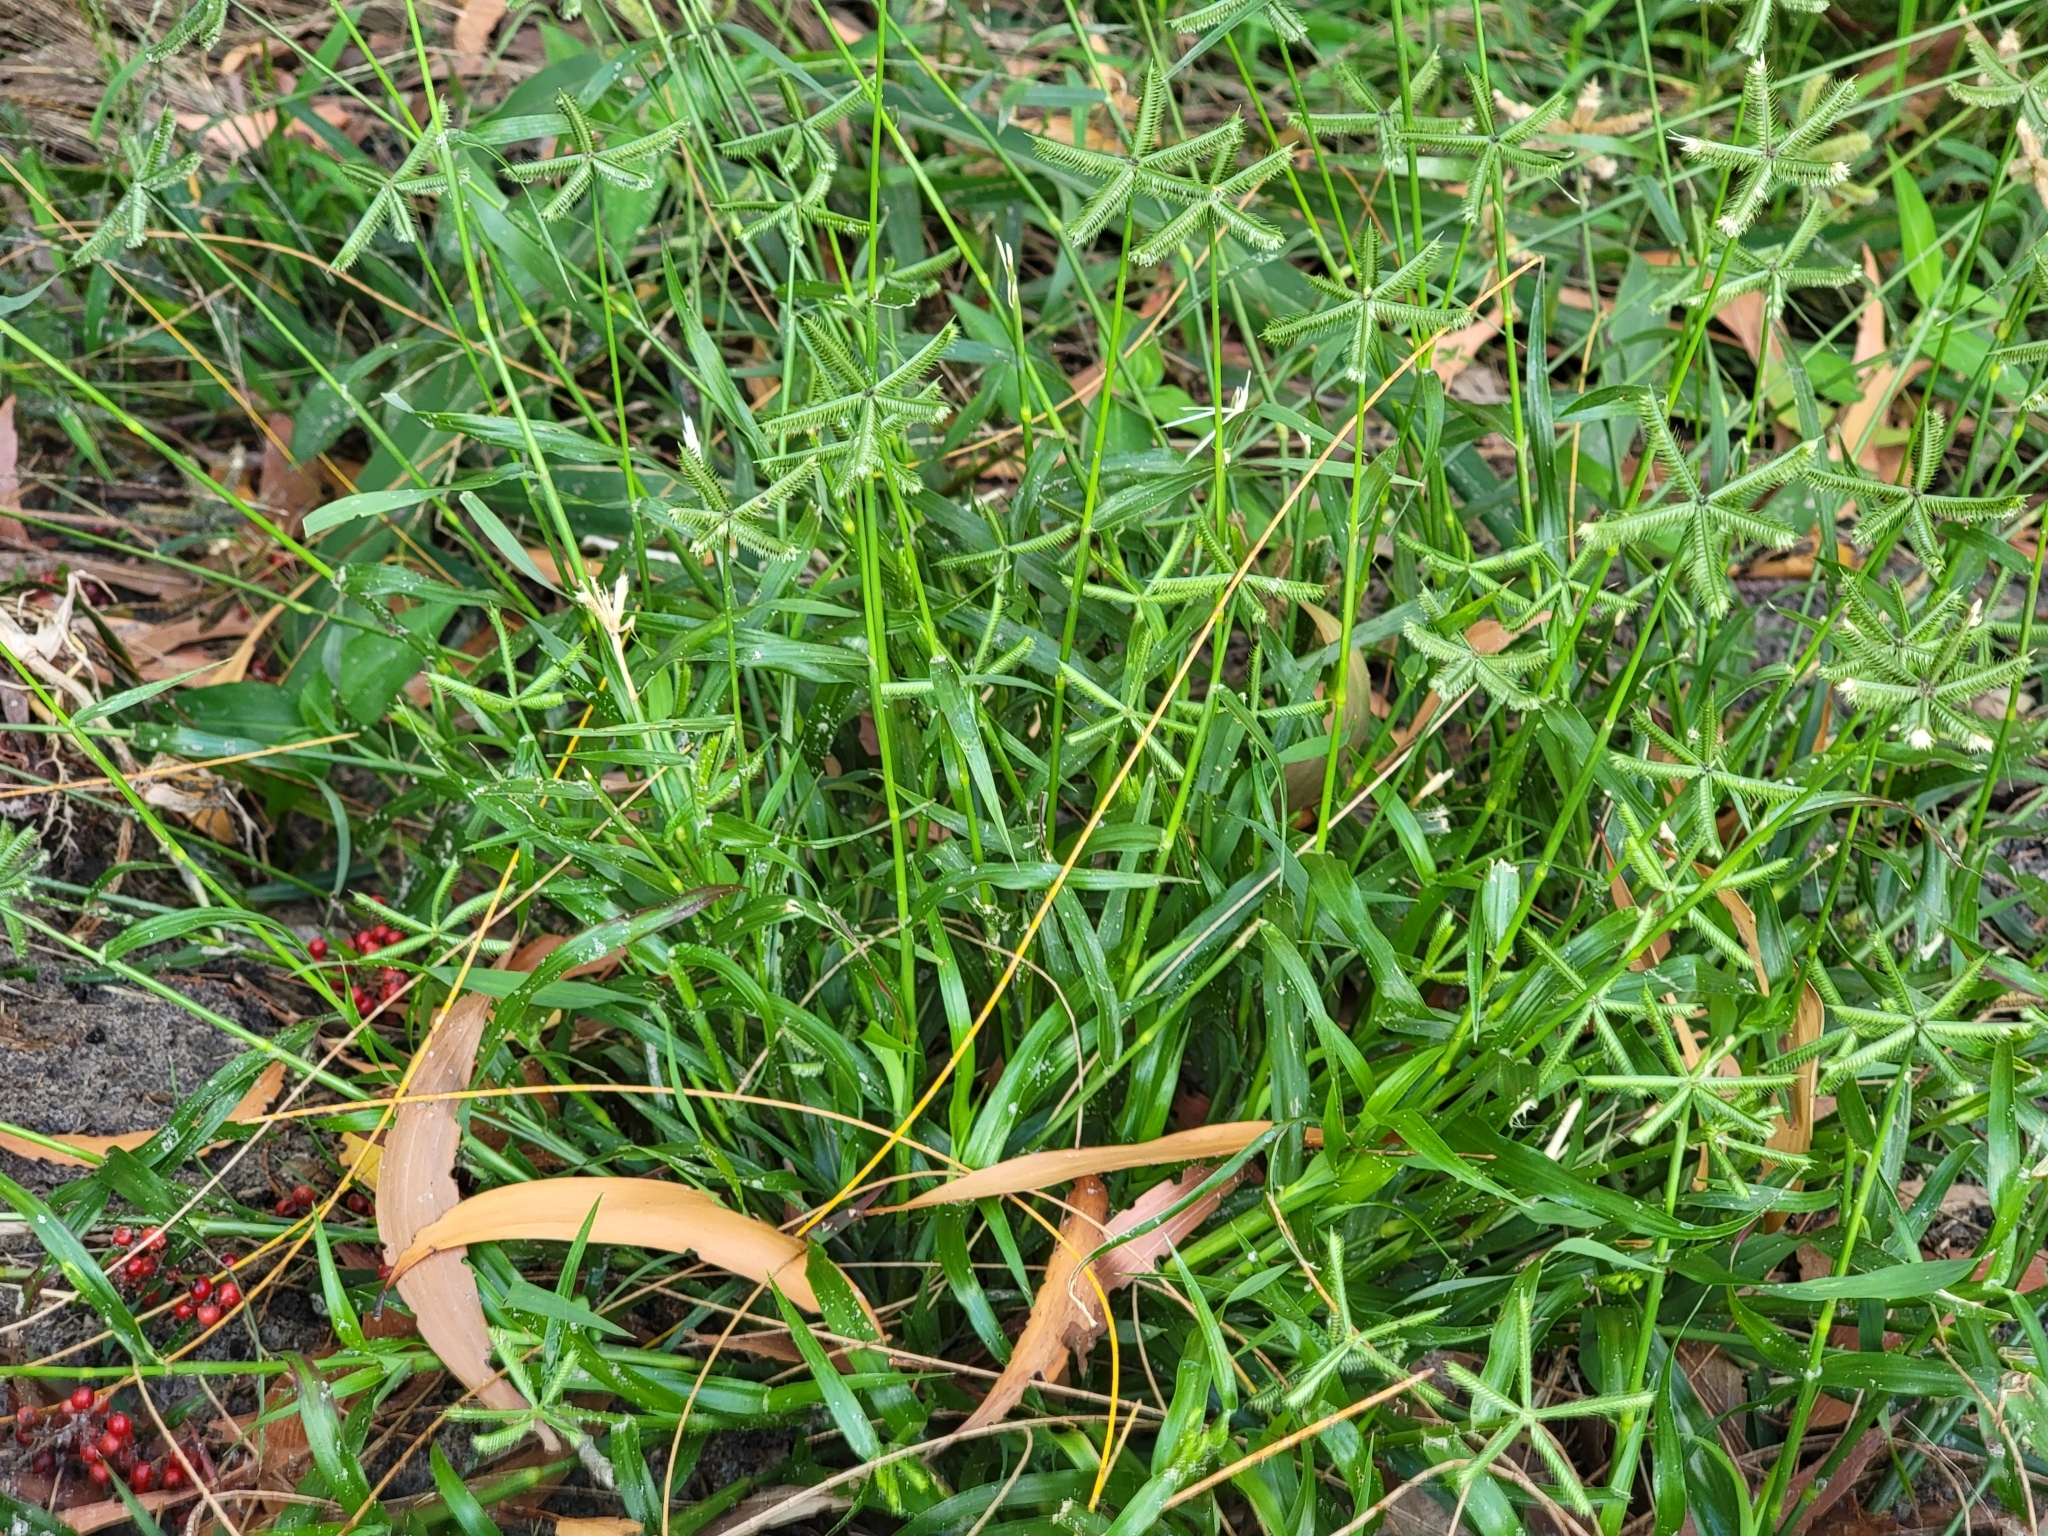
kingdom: Plantae
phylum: Tracheophyta
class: Liliopsida
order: Poales
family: Poaceae
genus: Dactyloctenium
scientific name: Dactyloctenium aegyptium
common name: Egyptian grass
